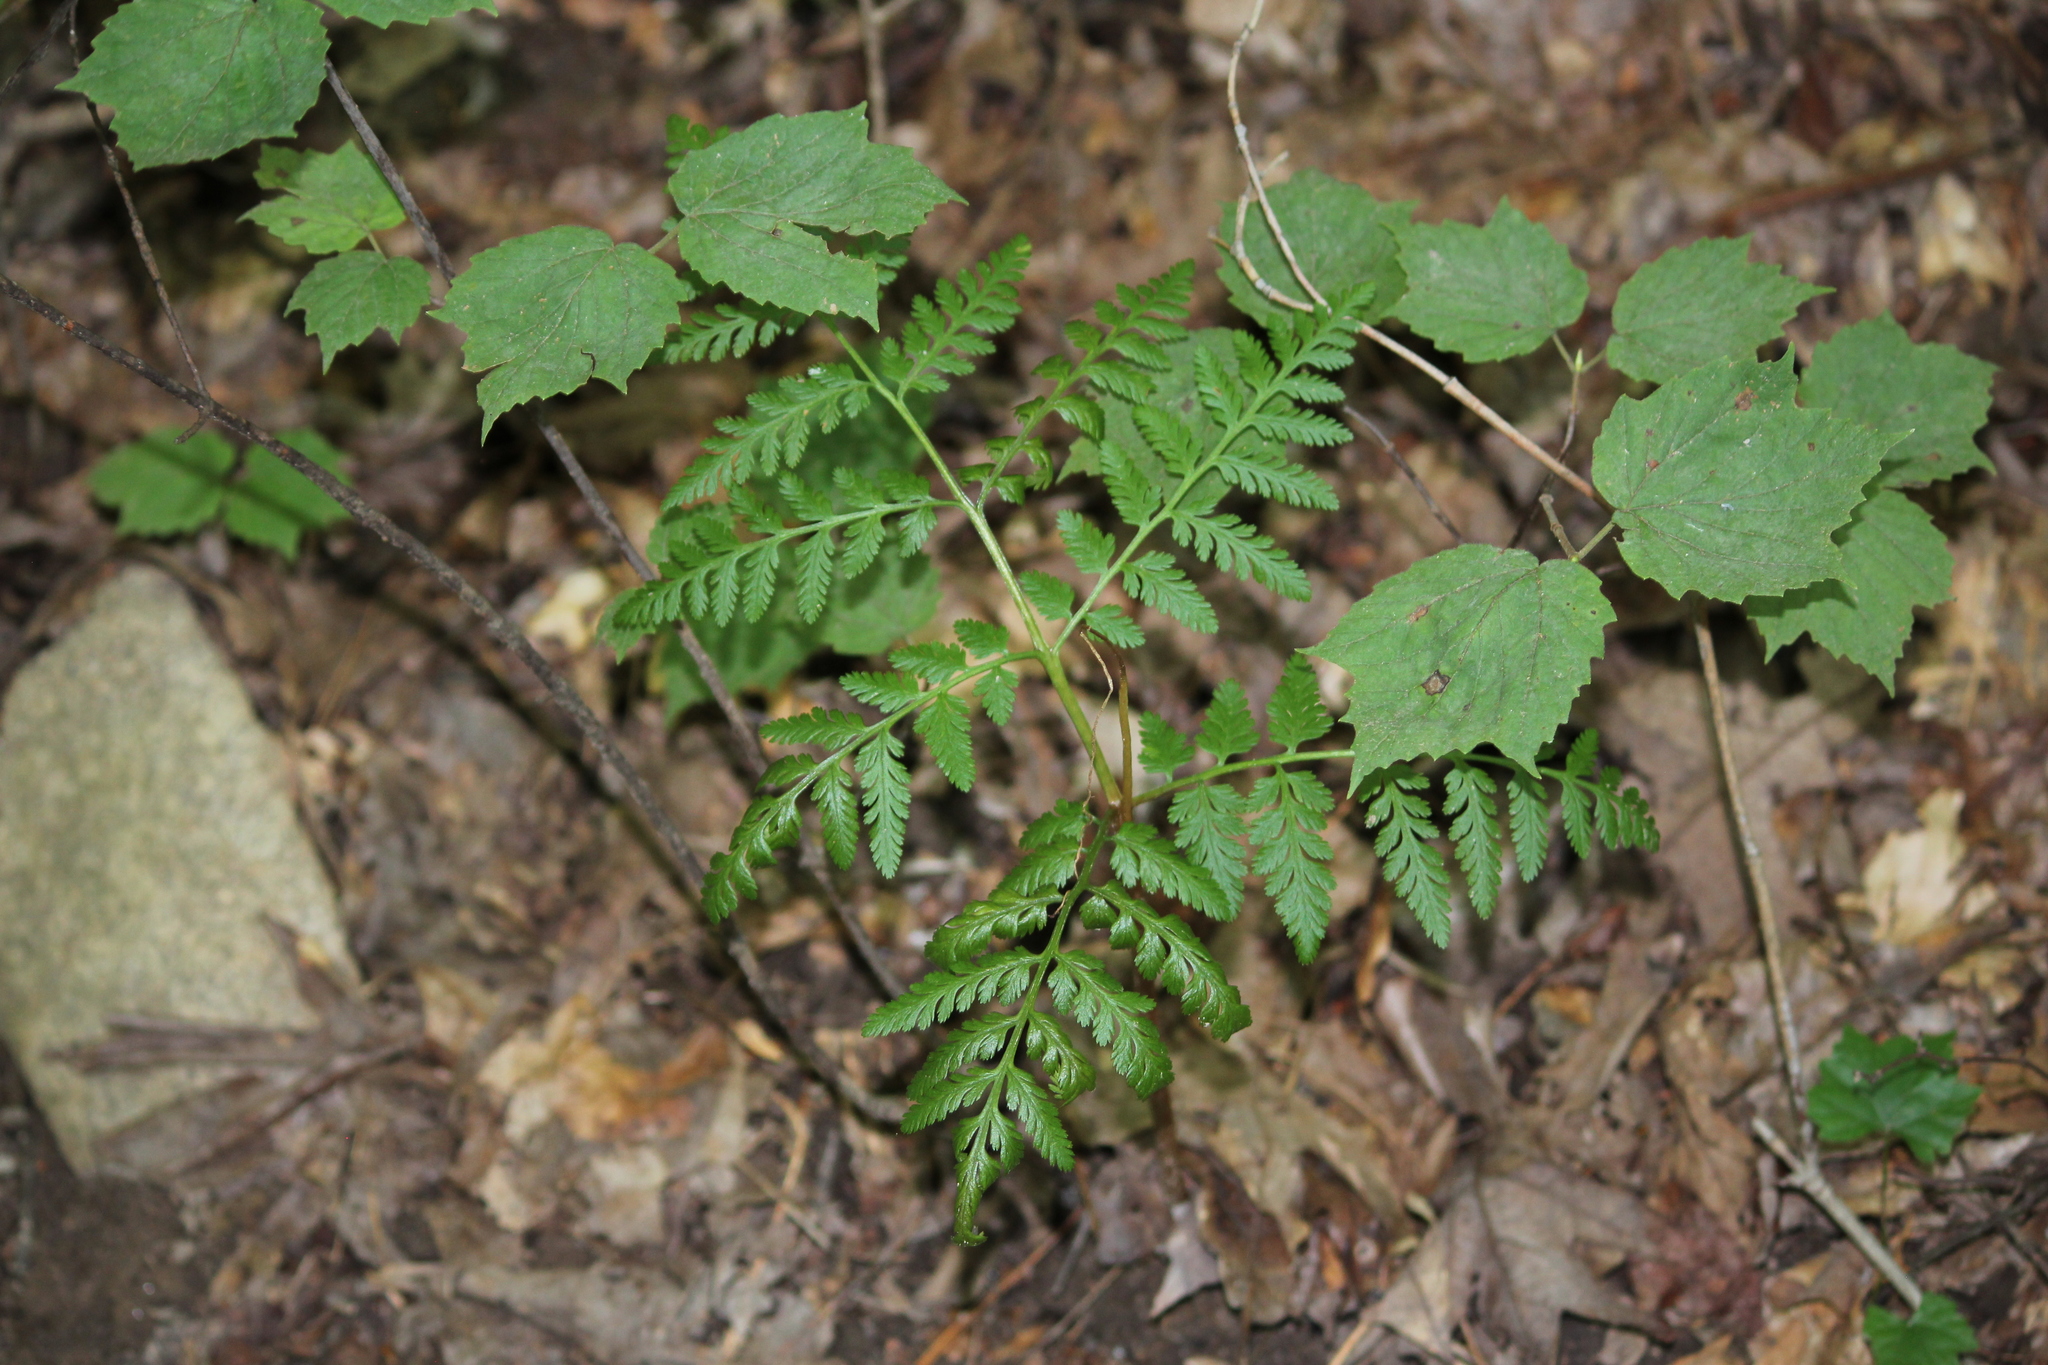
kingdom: Plantae
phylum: Tracheophyta
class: Polypodiopsida
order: Ophioglossales
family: Ophioglossaceae
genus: Botrypus
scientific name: Botrypus virginianus
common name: Common grapefern
